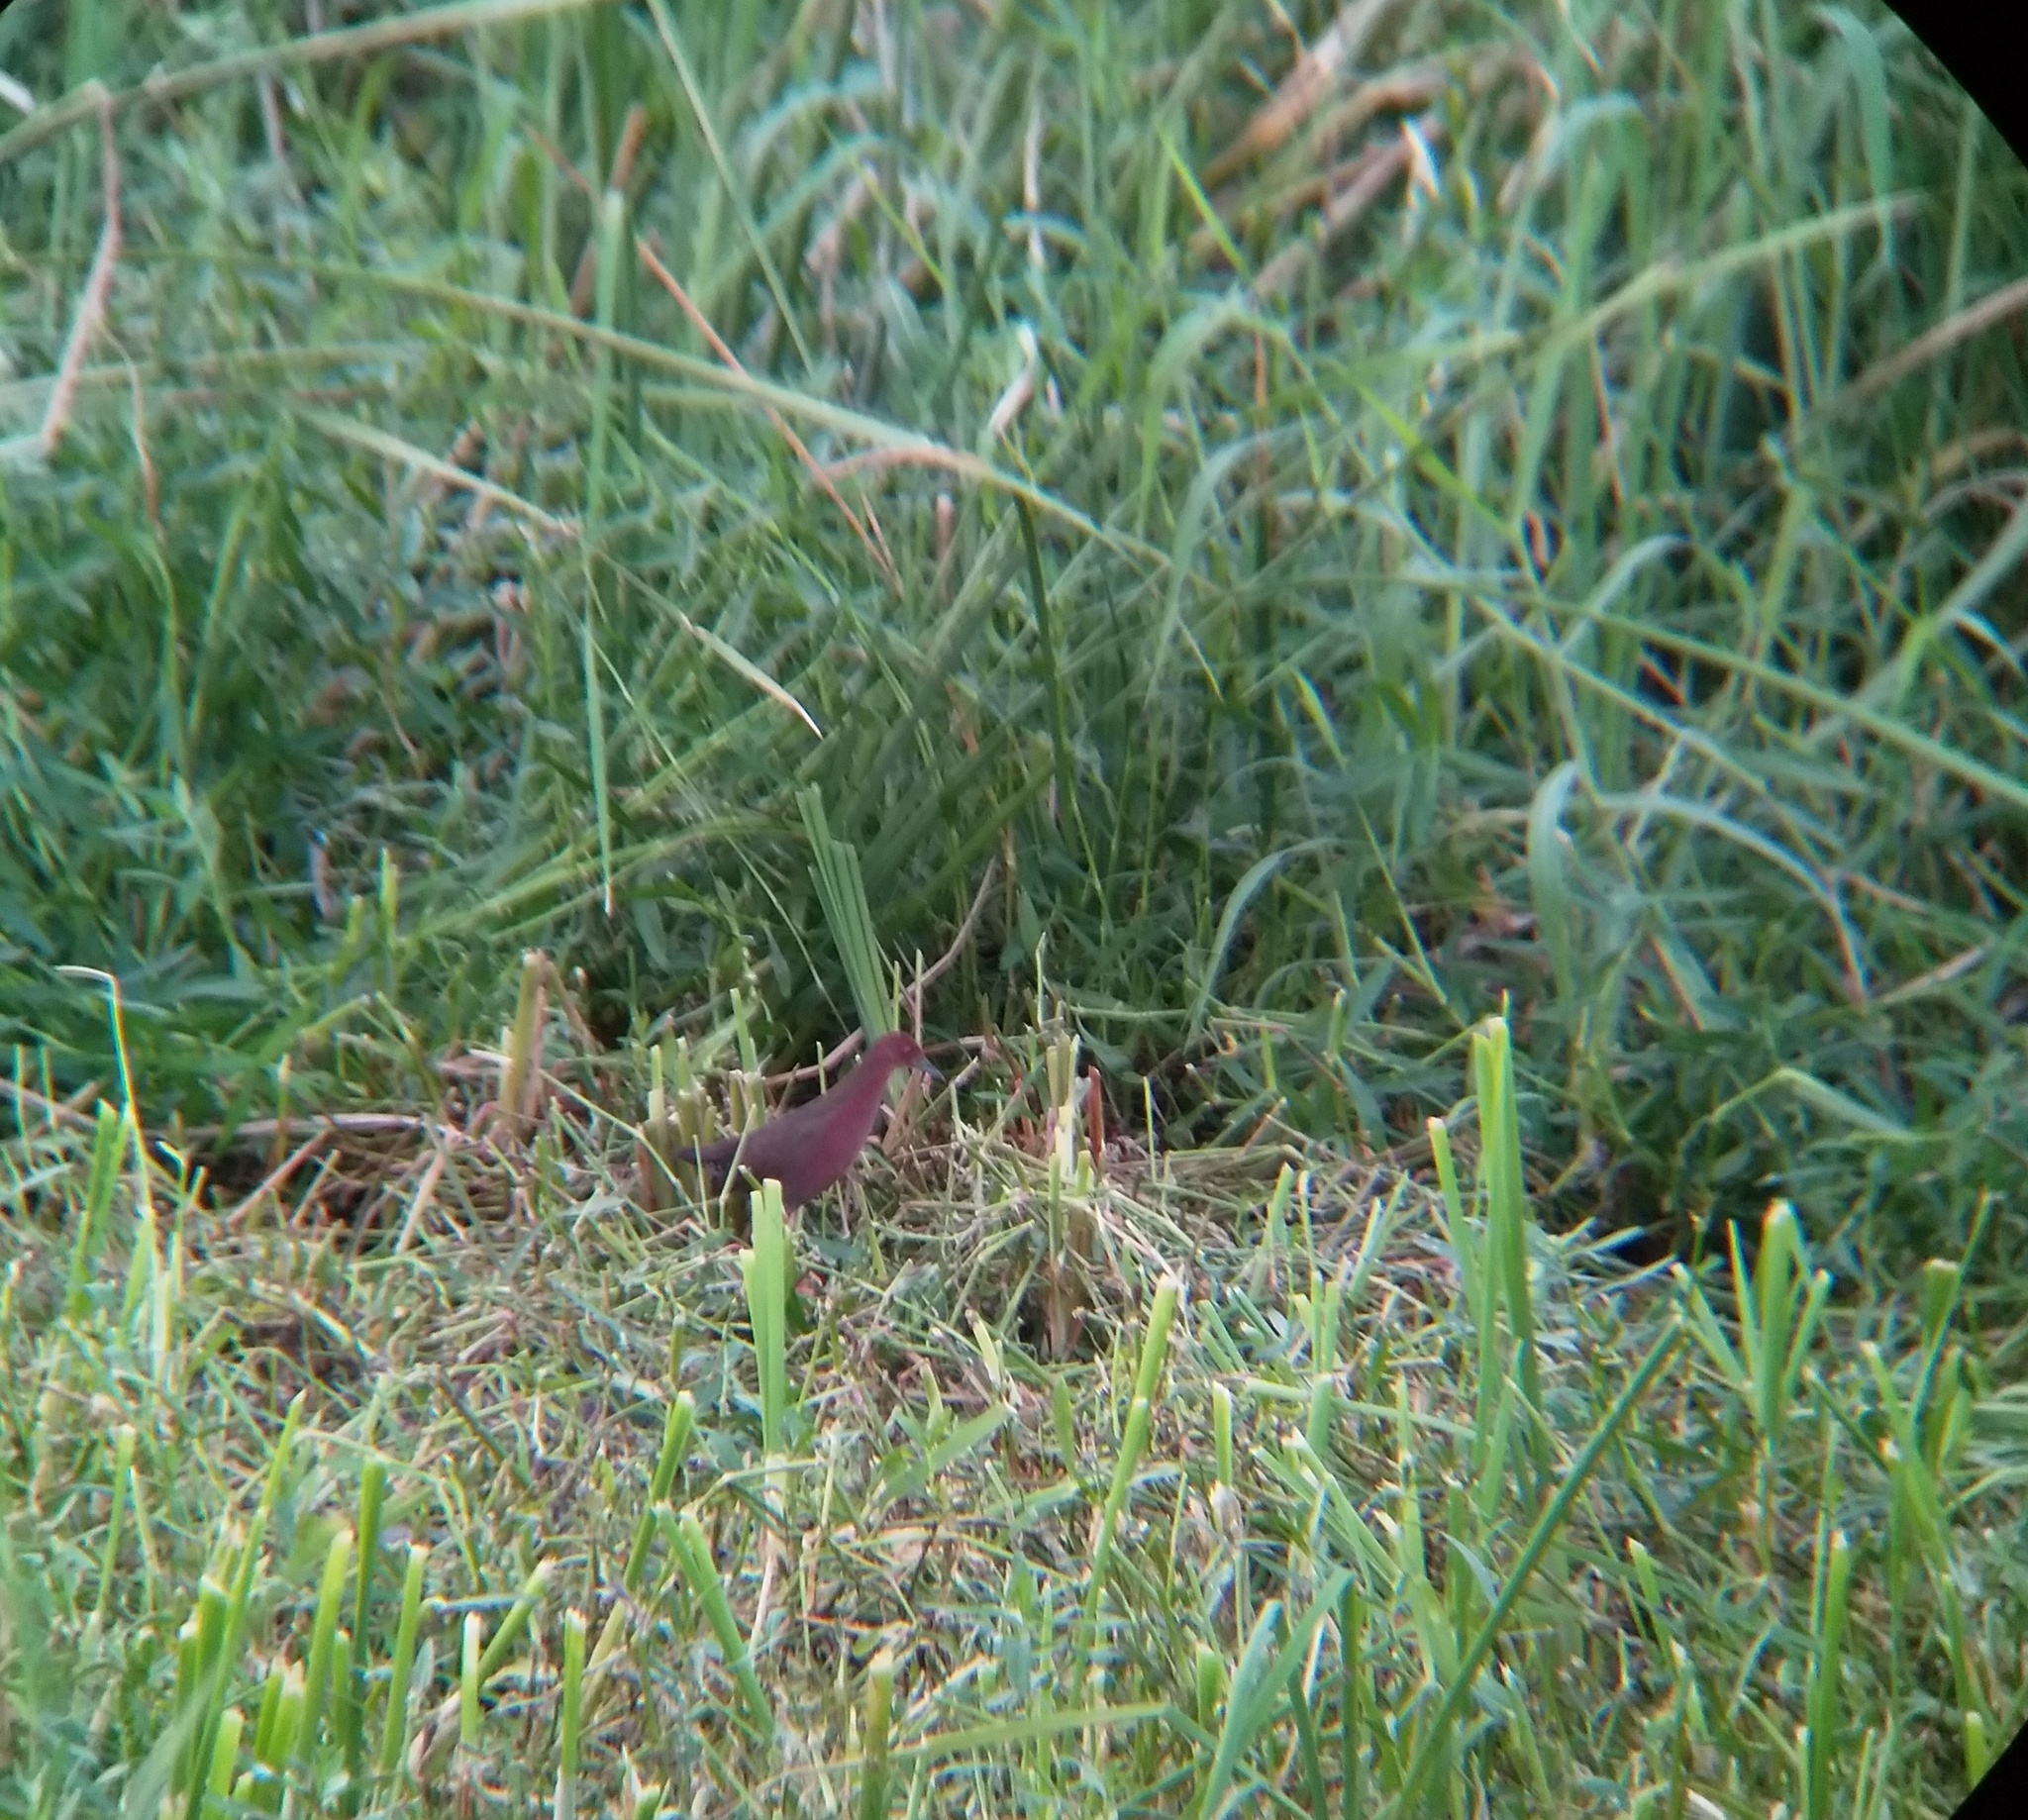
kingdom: Animalia
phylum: Chordata
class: Aves
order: Gruiformes
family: Rallidae
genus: Porzana
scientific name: Porzana fusca
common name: Ruddy-breasted crake
